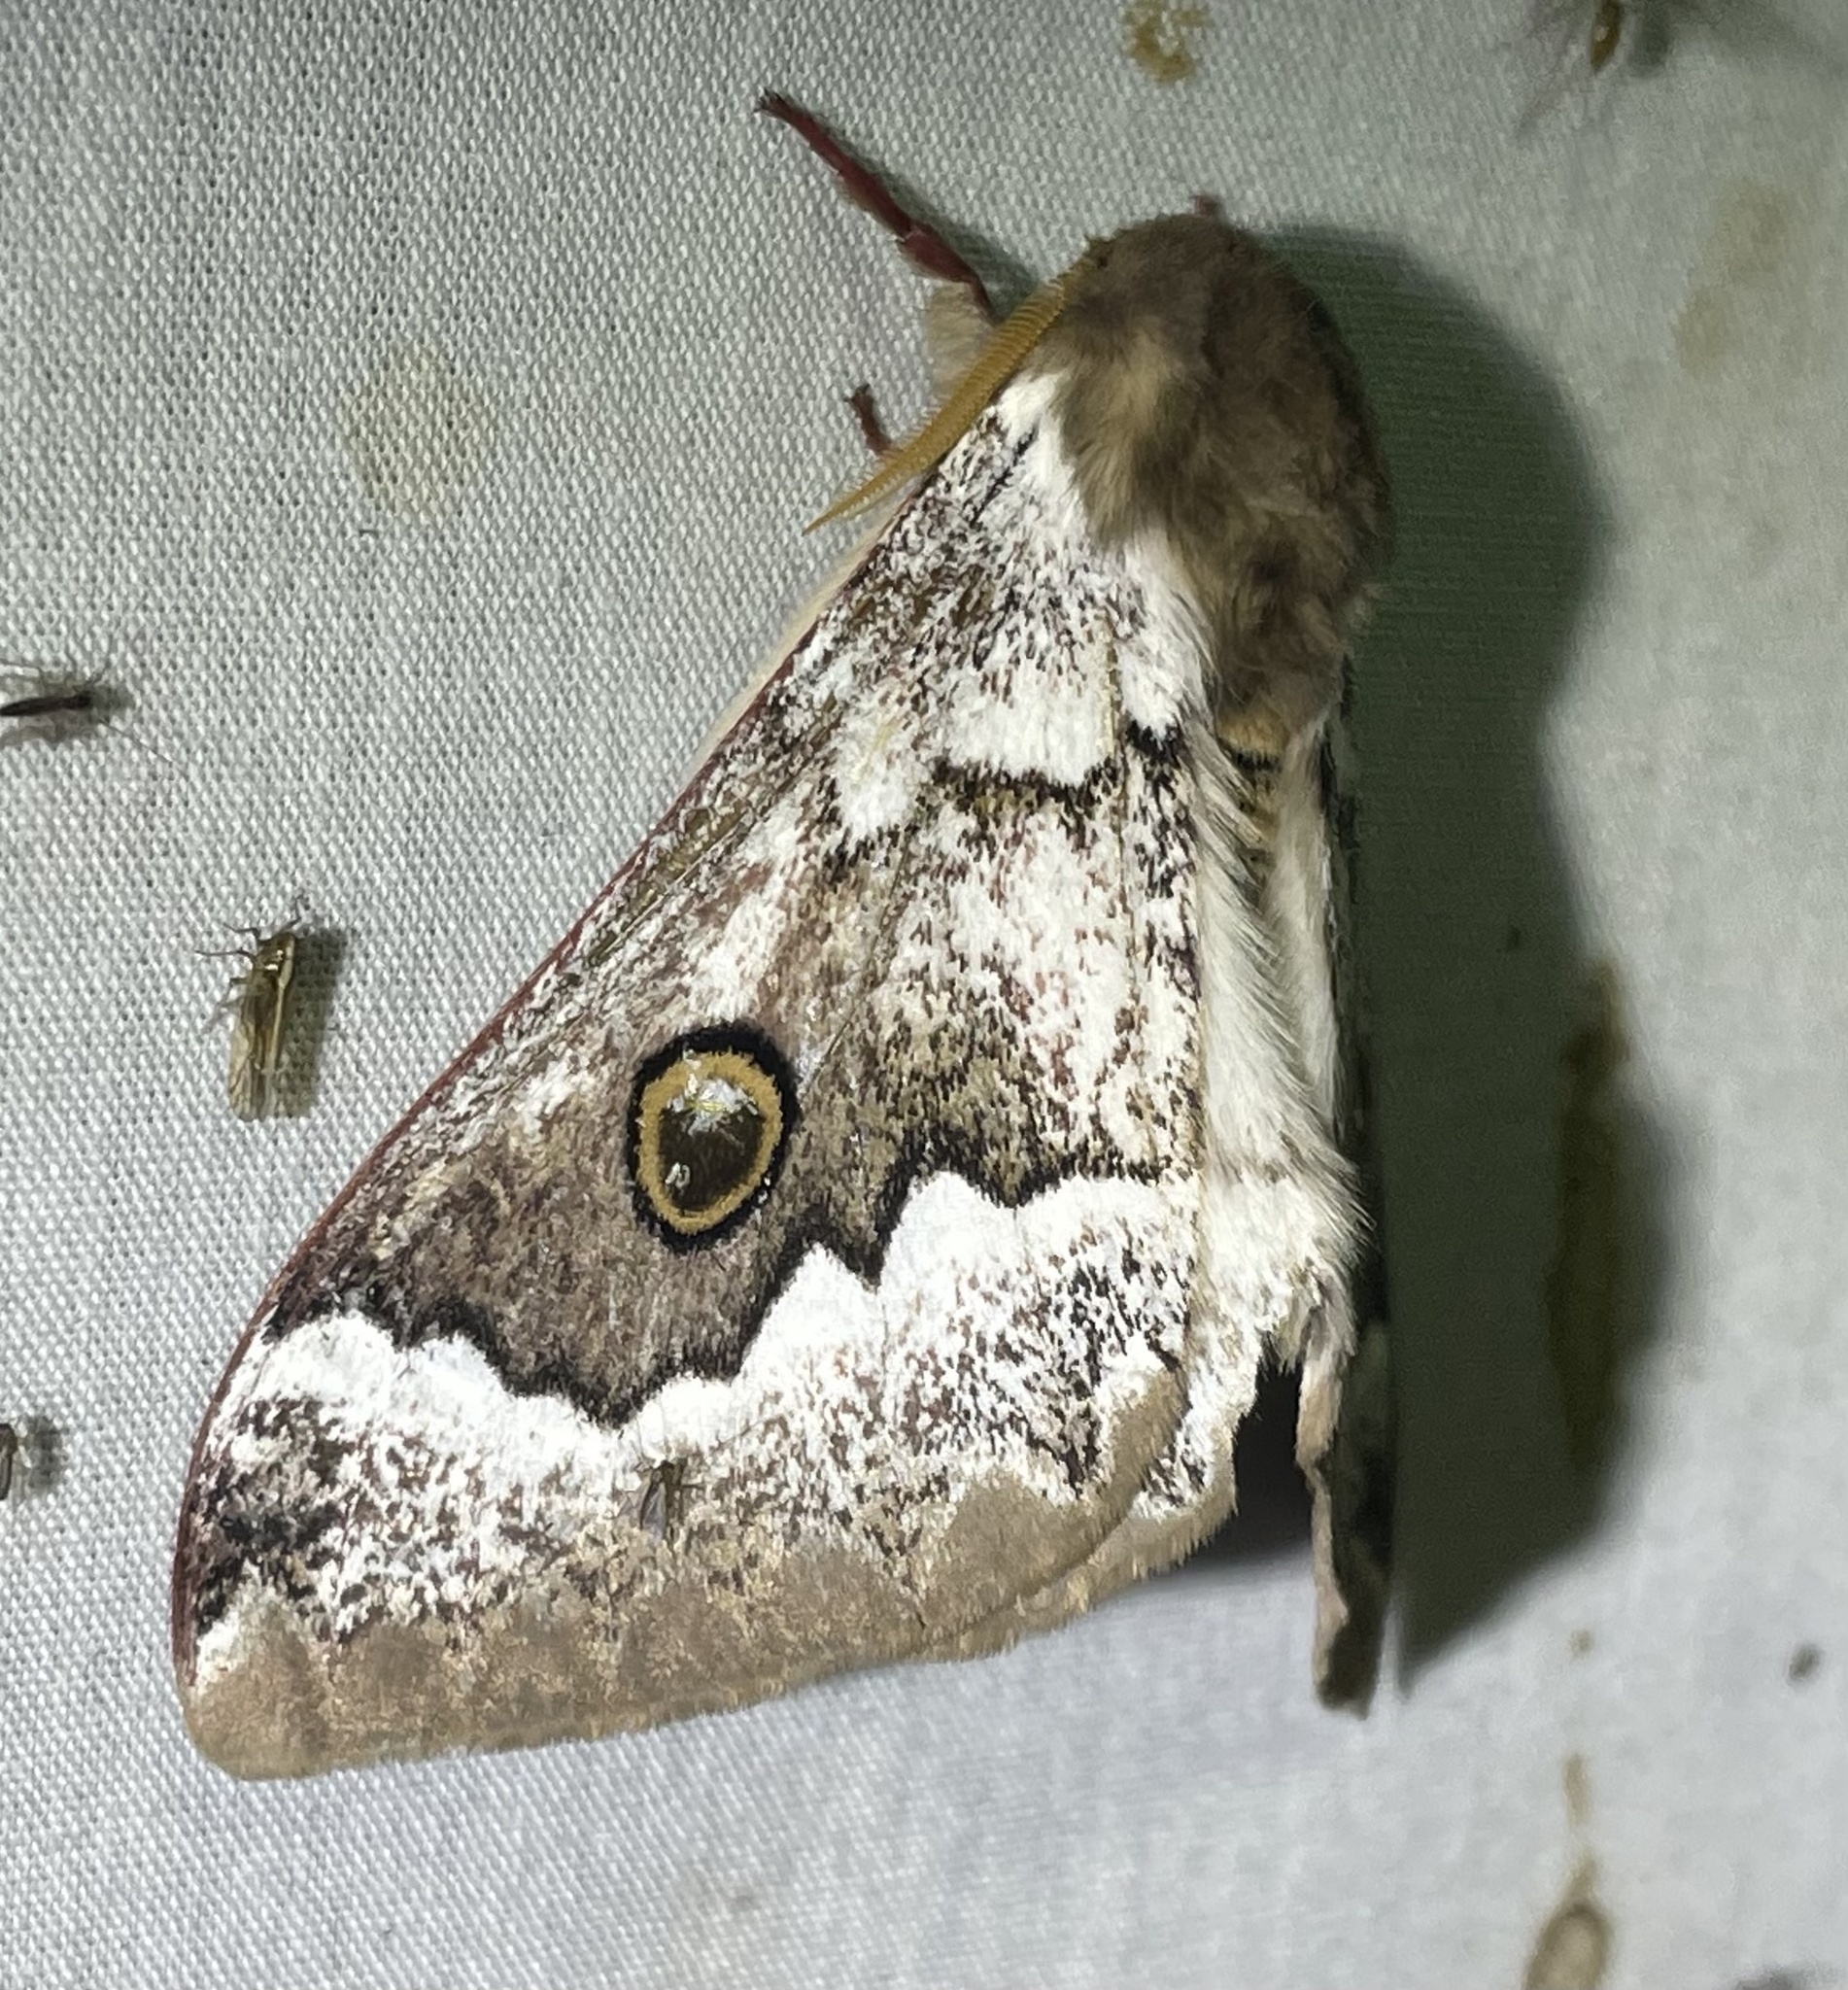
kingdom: Animalia
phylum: Arthropoda
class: Insecta
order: Lepidoptera
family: Saturniidae
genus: Usta
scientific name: Usta terpsichore
